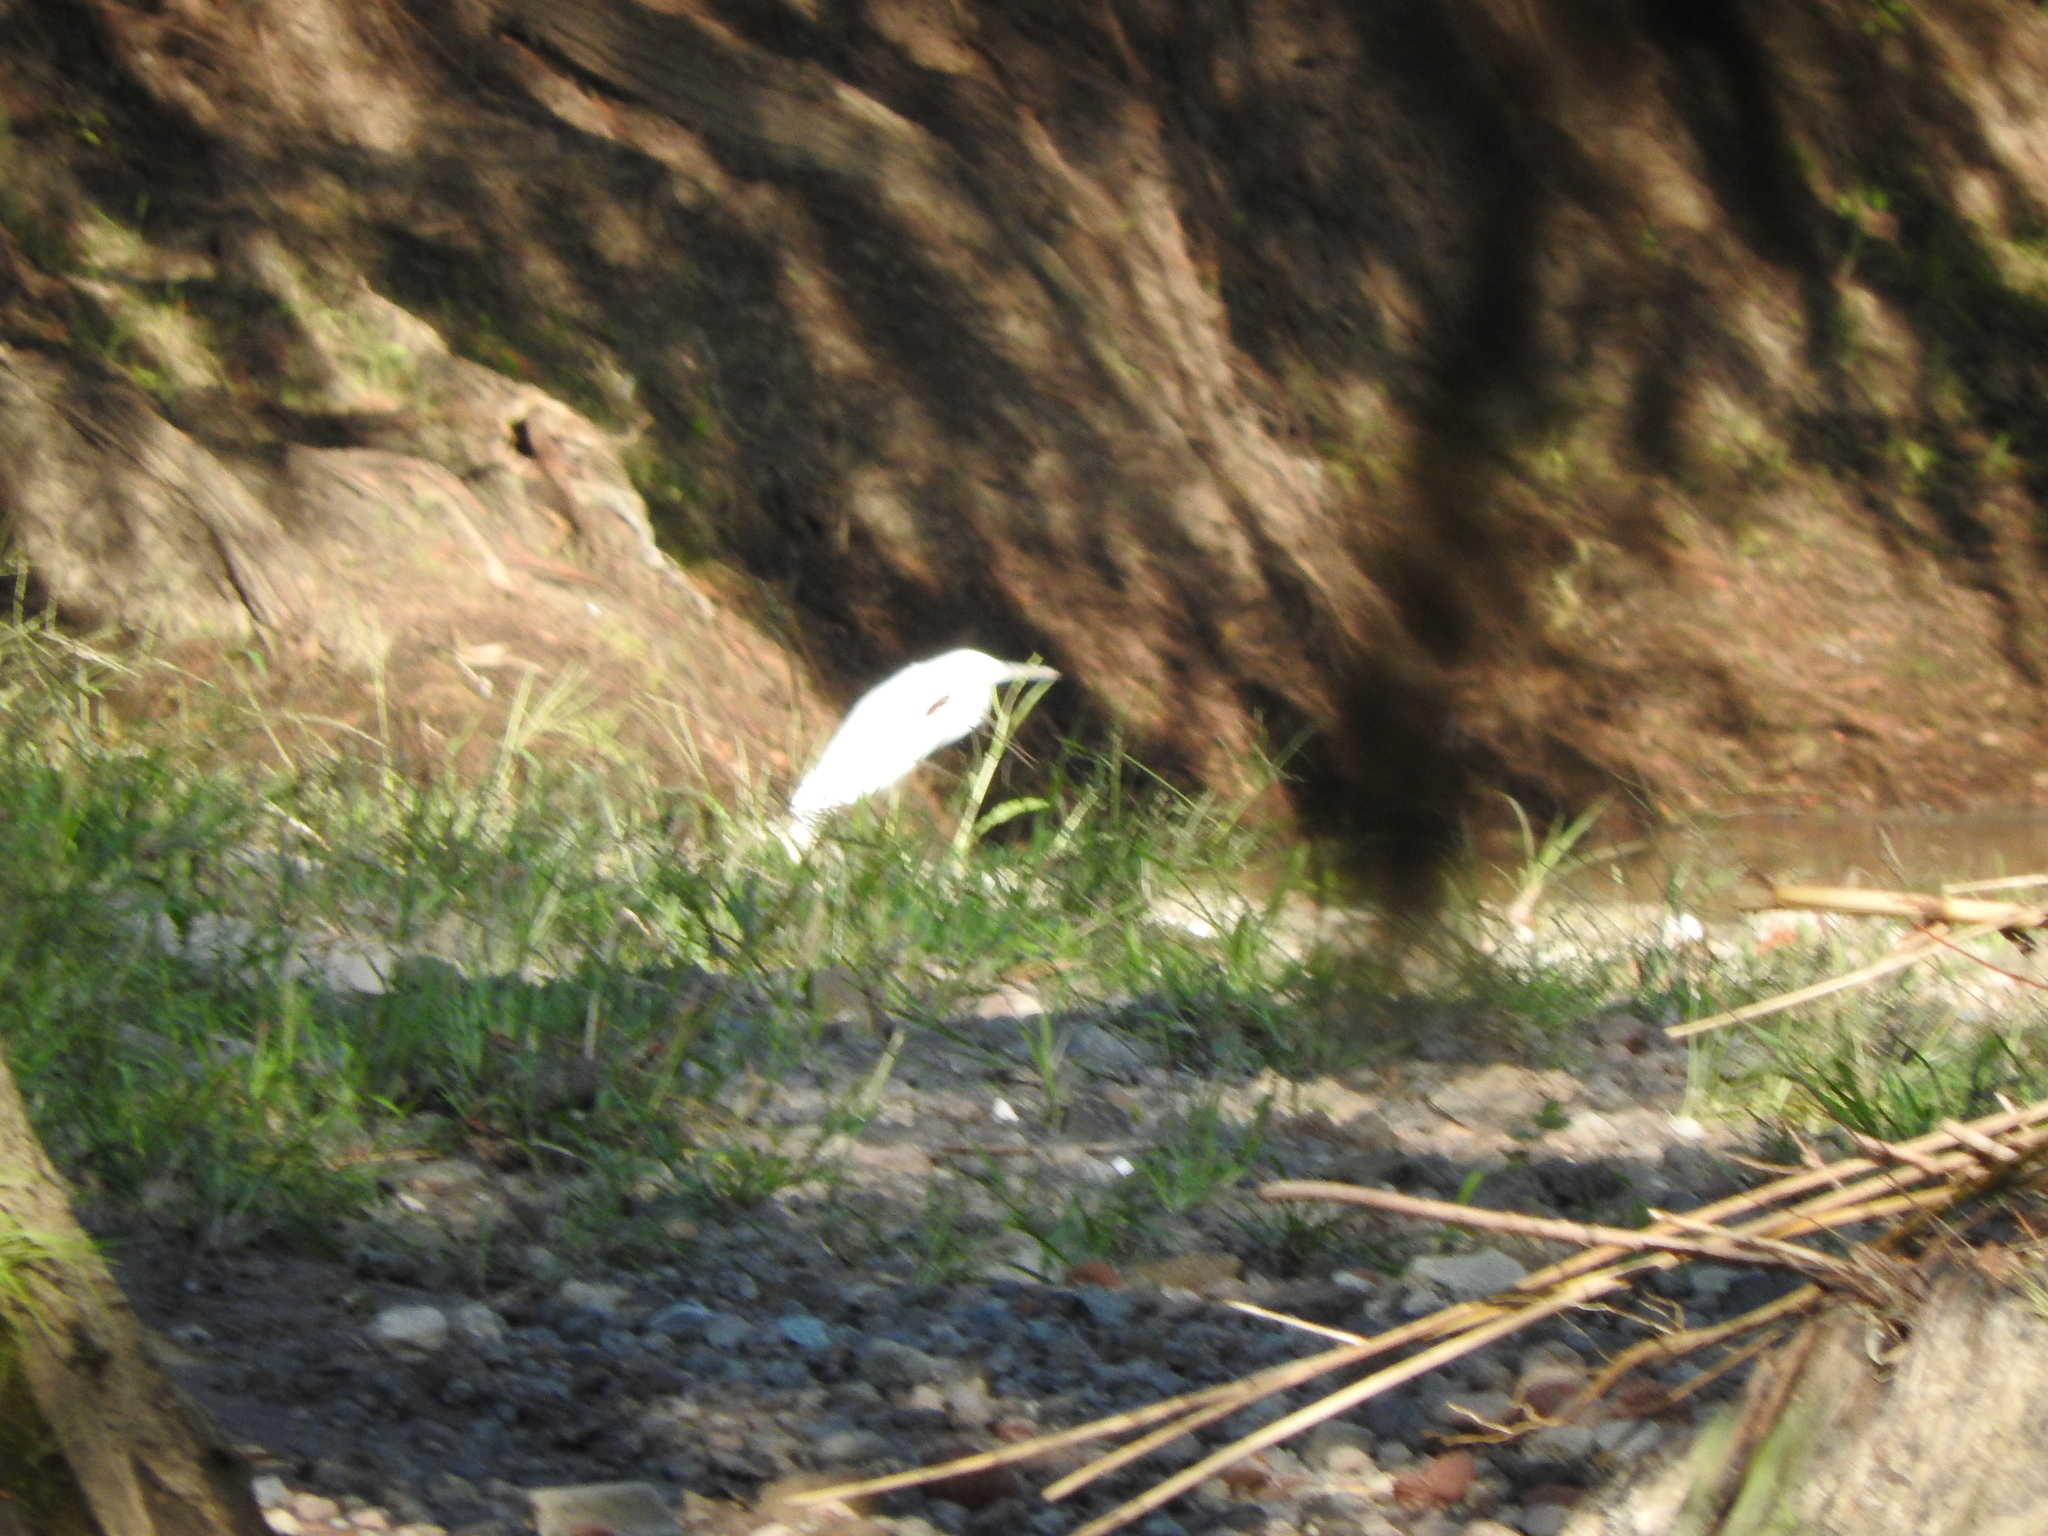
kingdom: Animalia
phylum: Chordata
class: Aves
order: Pelecaniformes
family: Ardeidae
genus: Egretta
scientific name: Egretta
